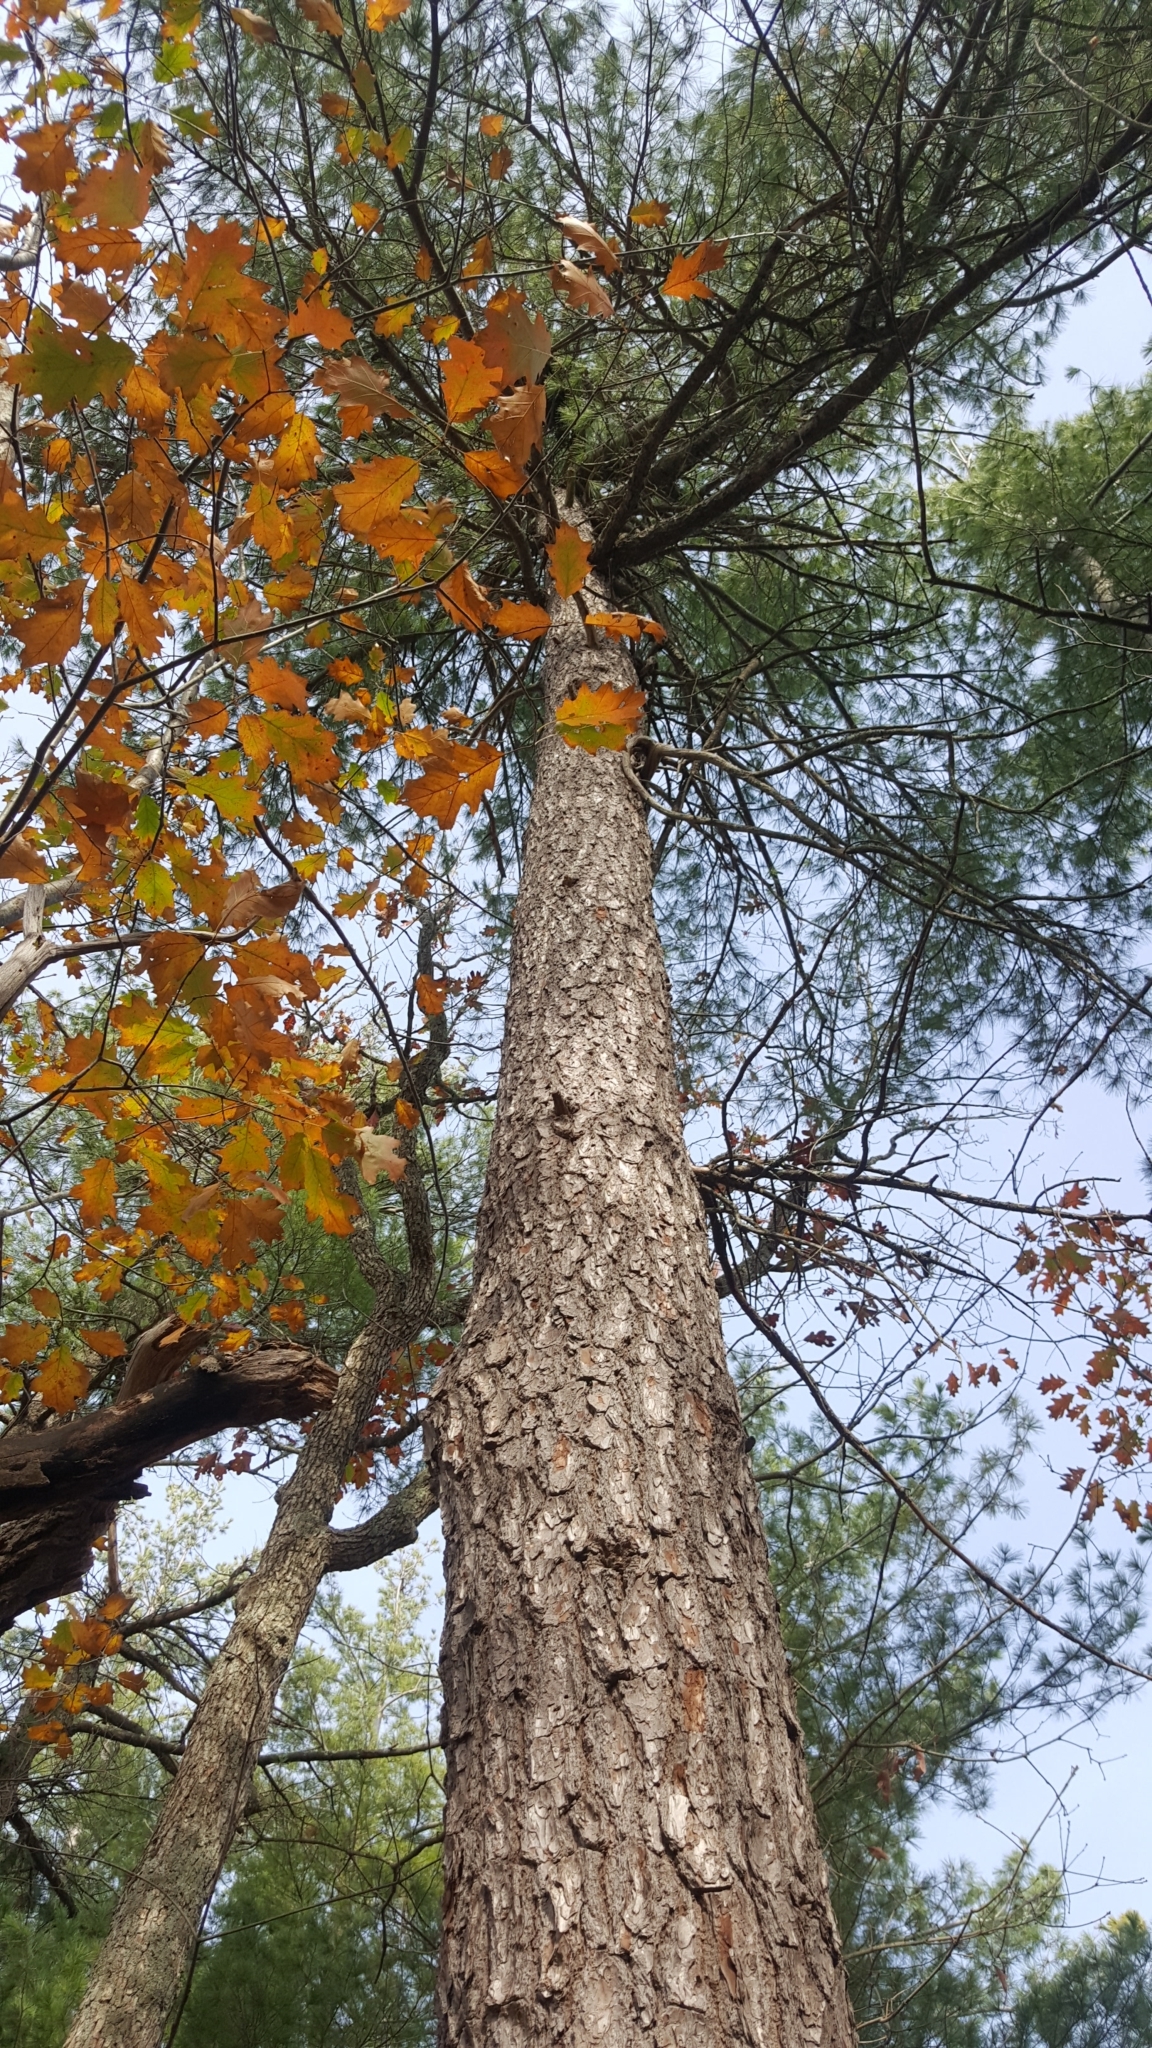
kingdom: Plantae
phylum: Tracheophyta
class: Pinopsida
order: Pinales
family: Pinaceae
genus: Pinus
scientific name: Pinus strobus
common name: Weymouth pine
